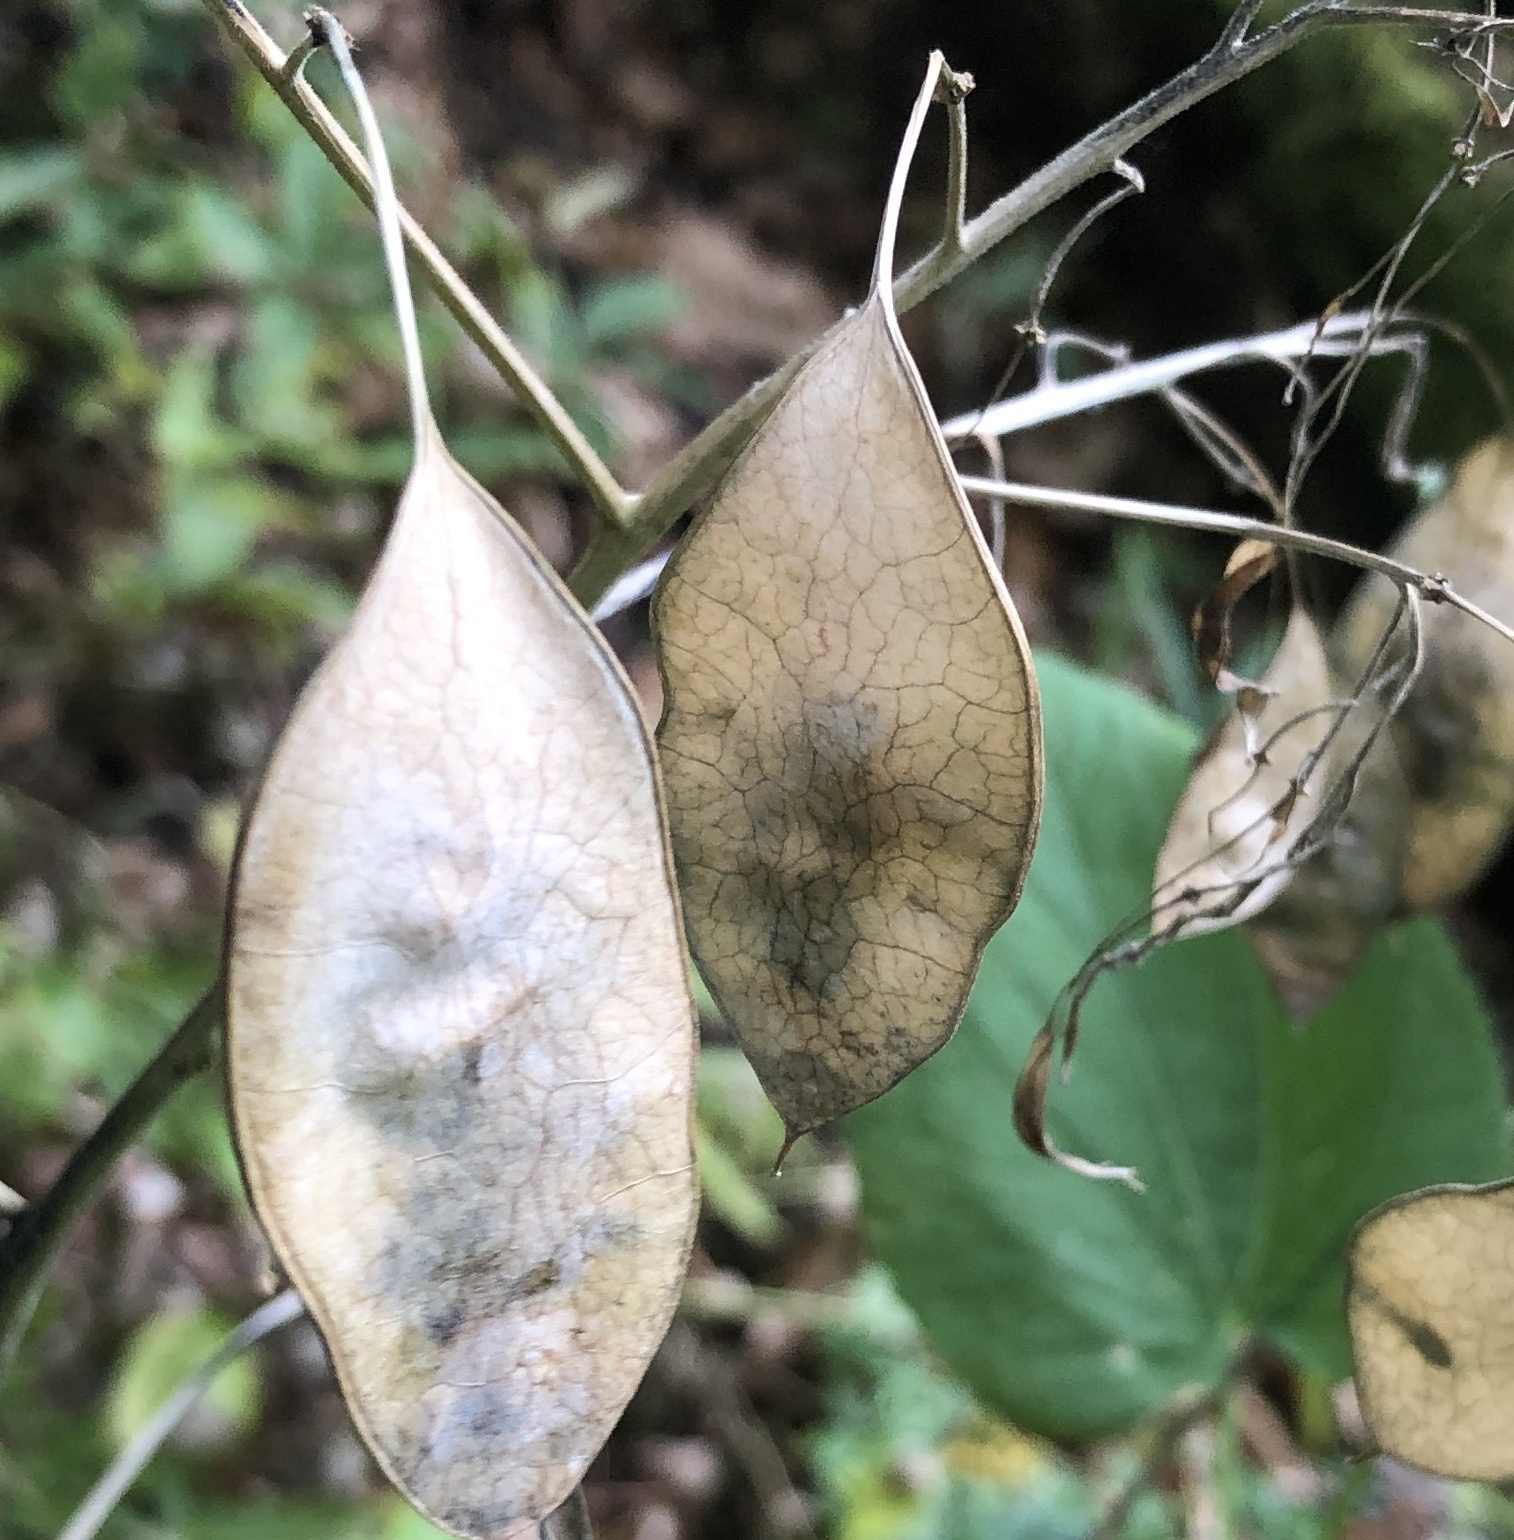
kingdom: Plantae
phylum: Tracheophyta
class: Magnoliopsida
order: Brassicales
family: Brassicaceae
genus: Lunaria
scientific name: Lunaria rediviva
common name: Perennial honesty
